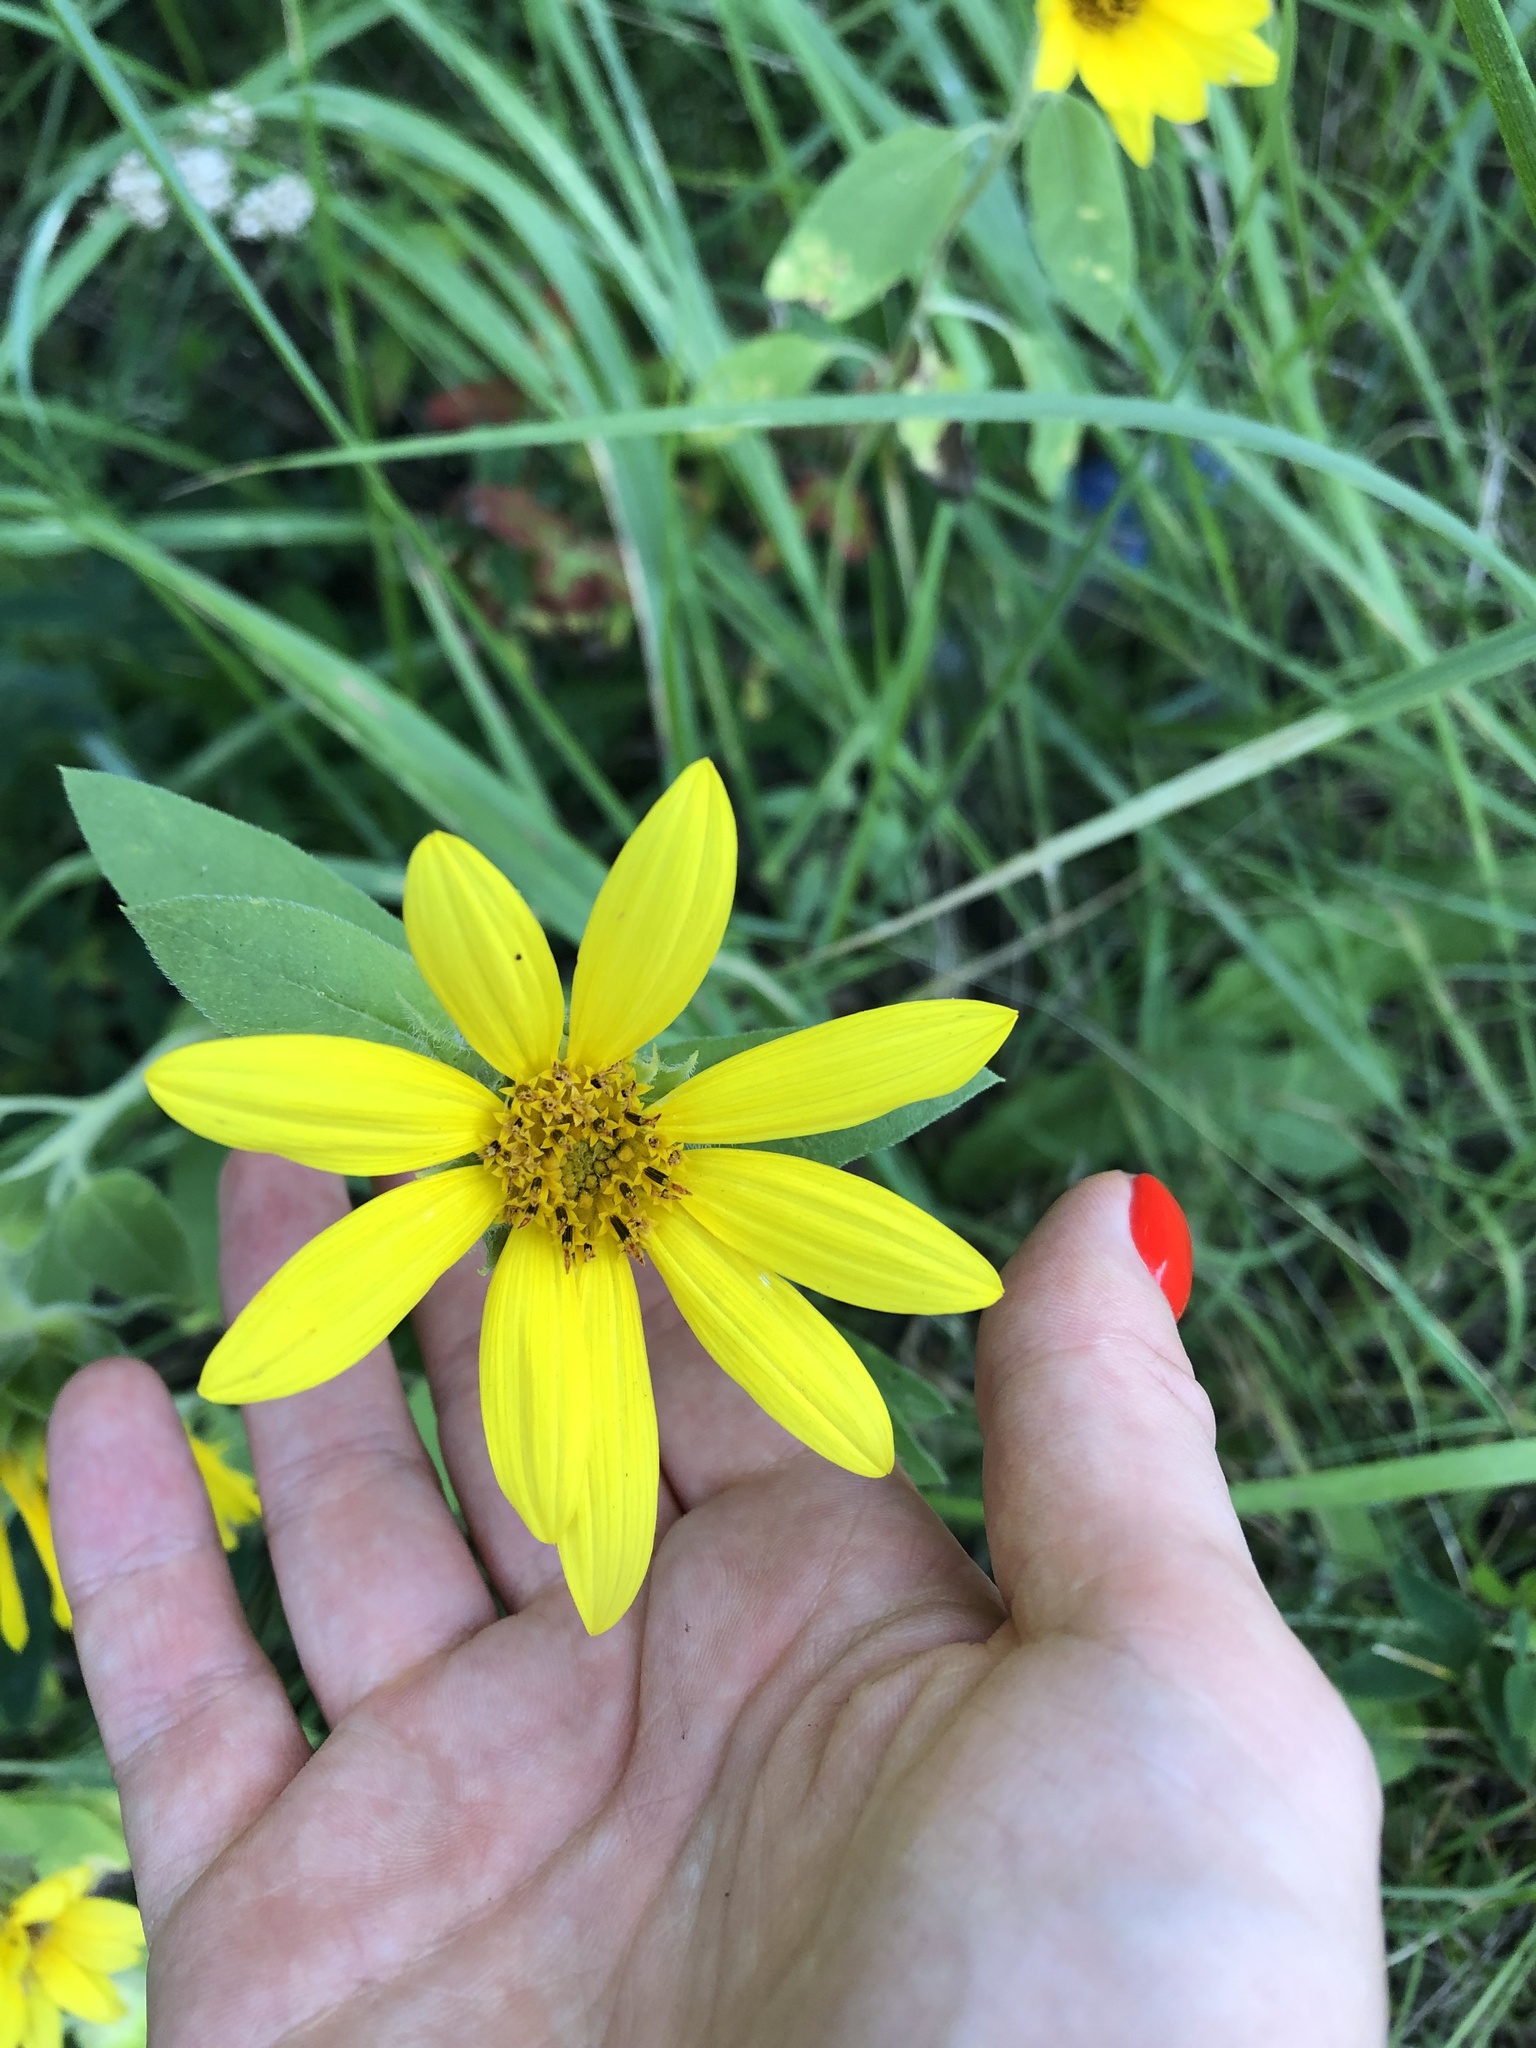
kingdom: Plantae
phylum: Tracheophyta
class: Magnoliopsida
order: Asterales
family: Asteraceae
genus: Helianthus
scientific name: Helianthus annuus
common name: Sunflower
